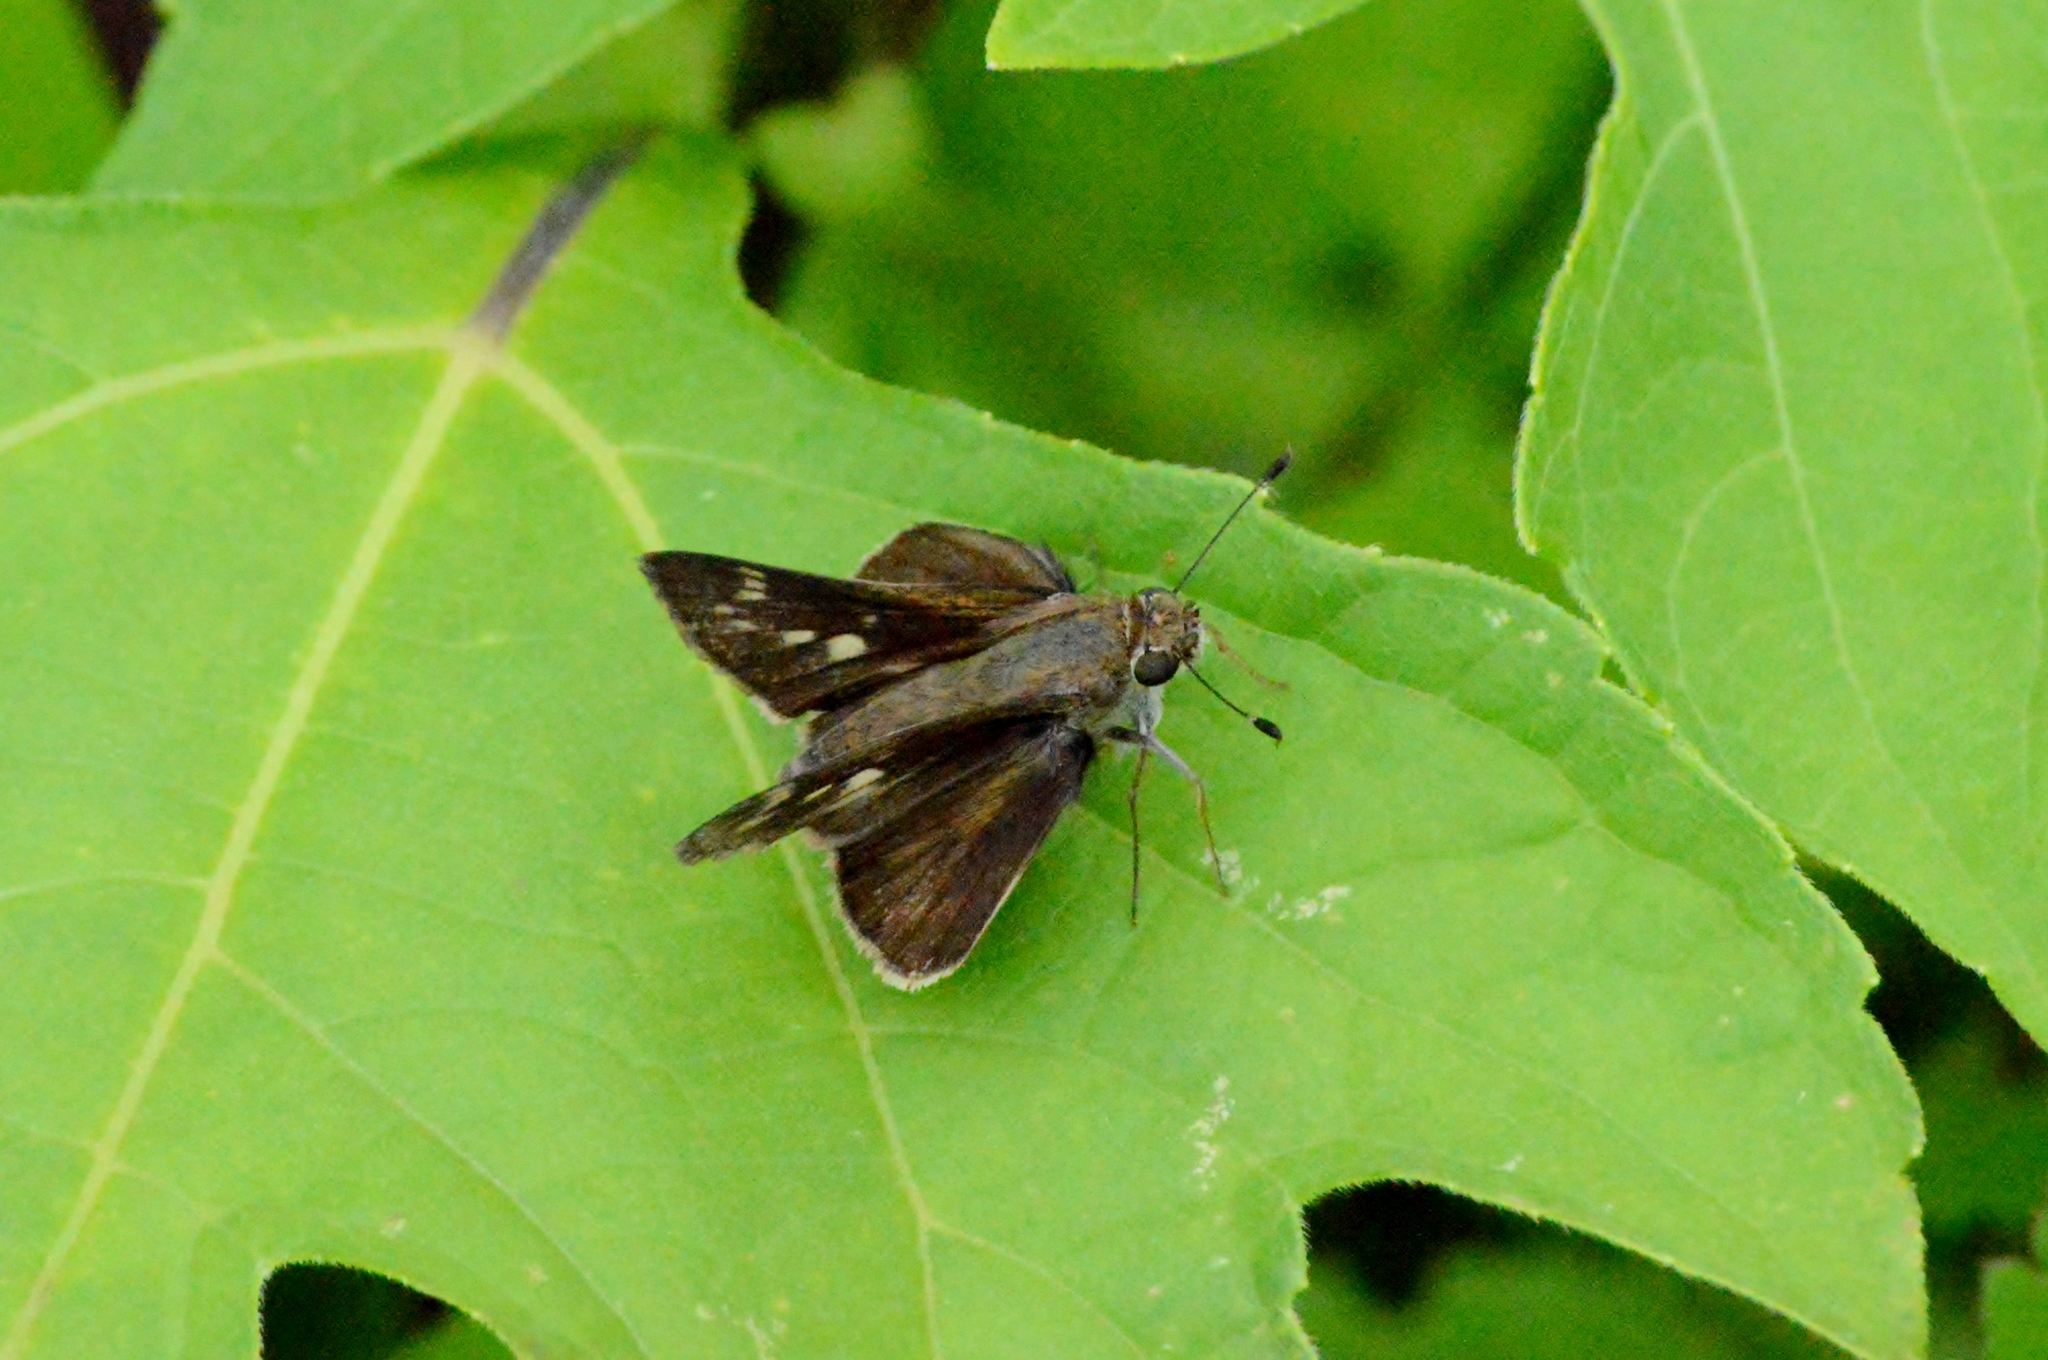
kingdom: Animalia
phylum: Arthropoda
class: Insecta
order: Lepidoptera
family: Hesperiidae
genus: Pompeius
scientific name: Pompeius pompeius
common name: Pompeius skipper
